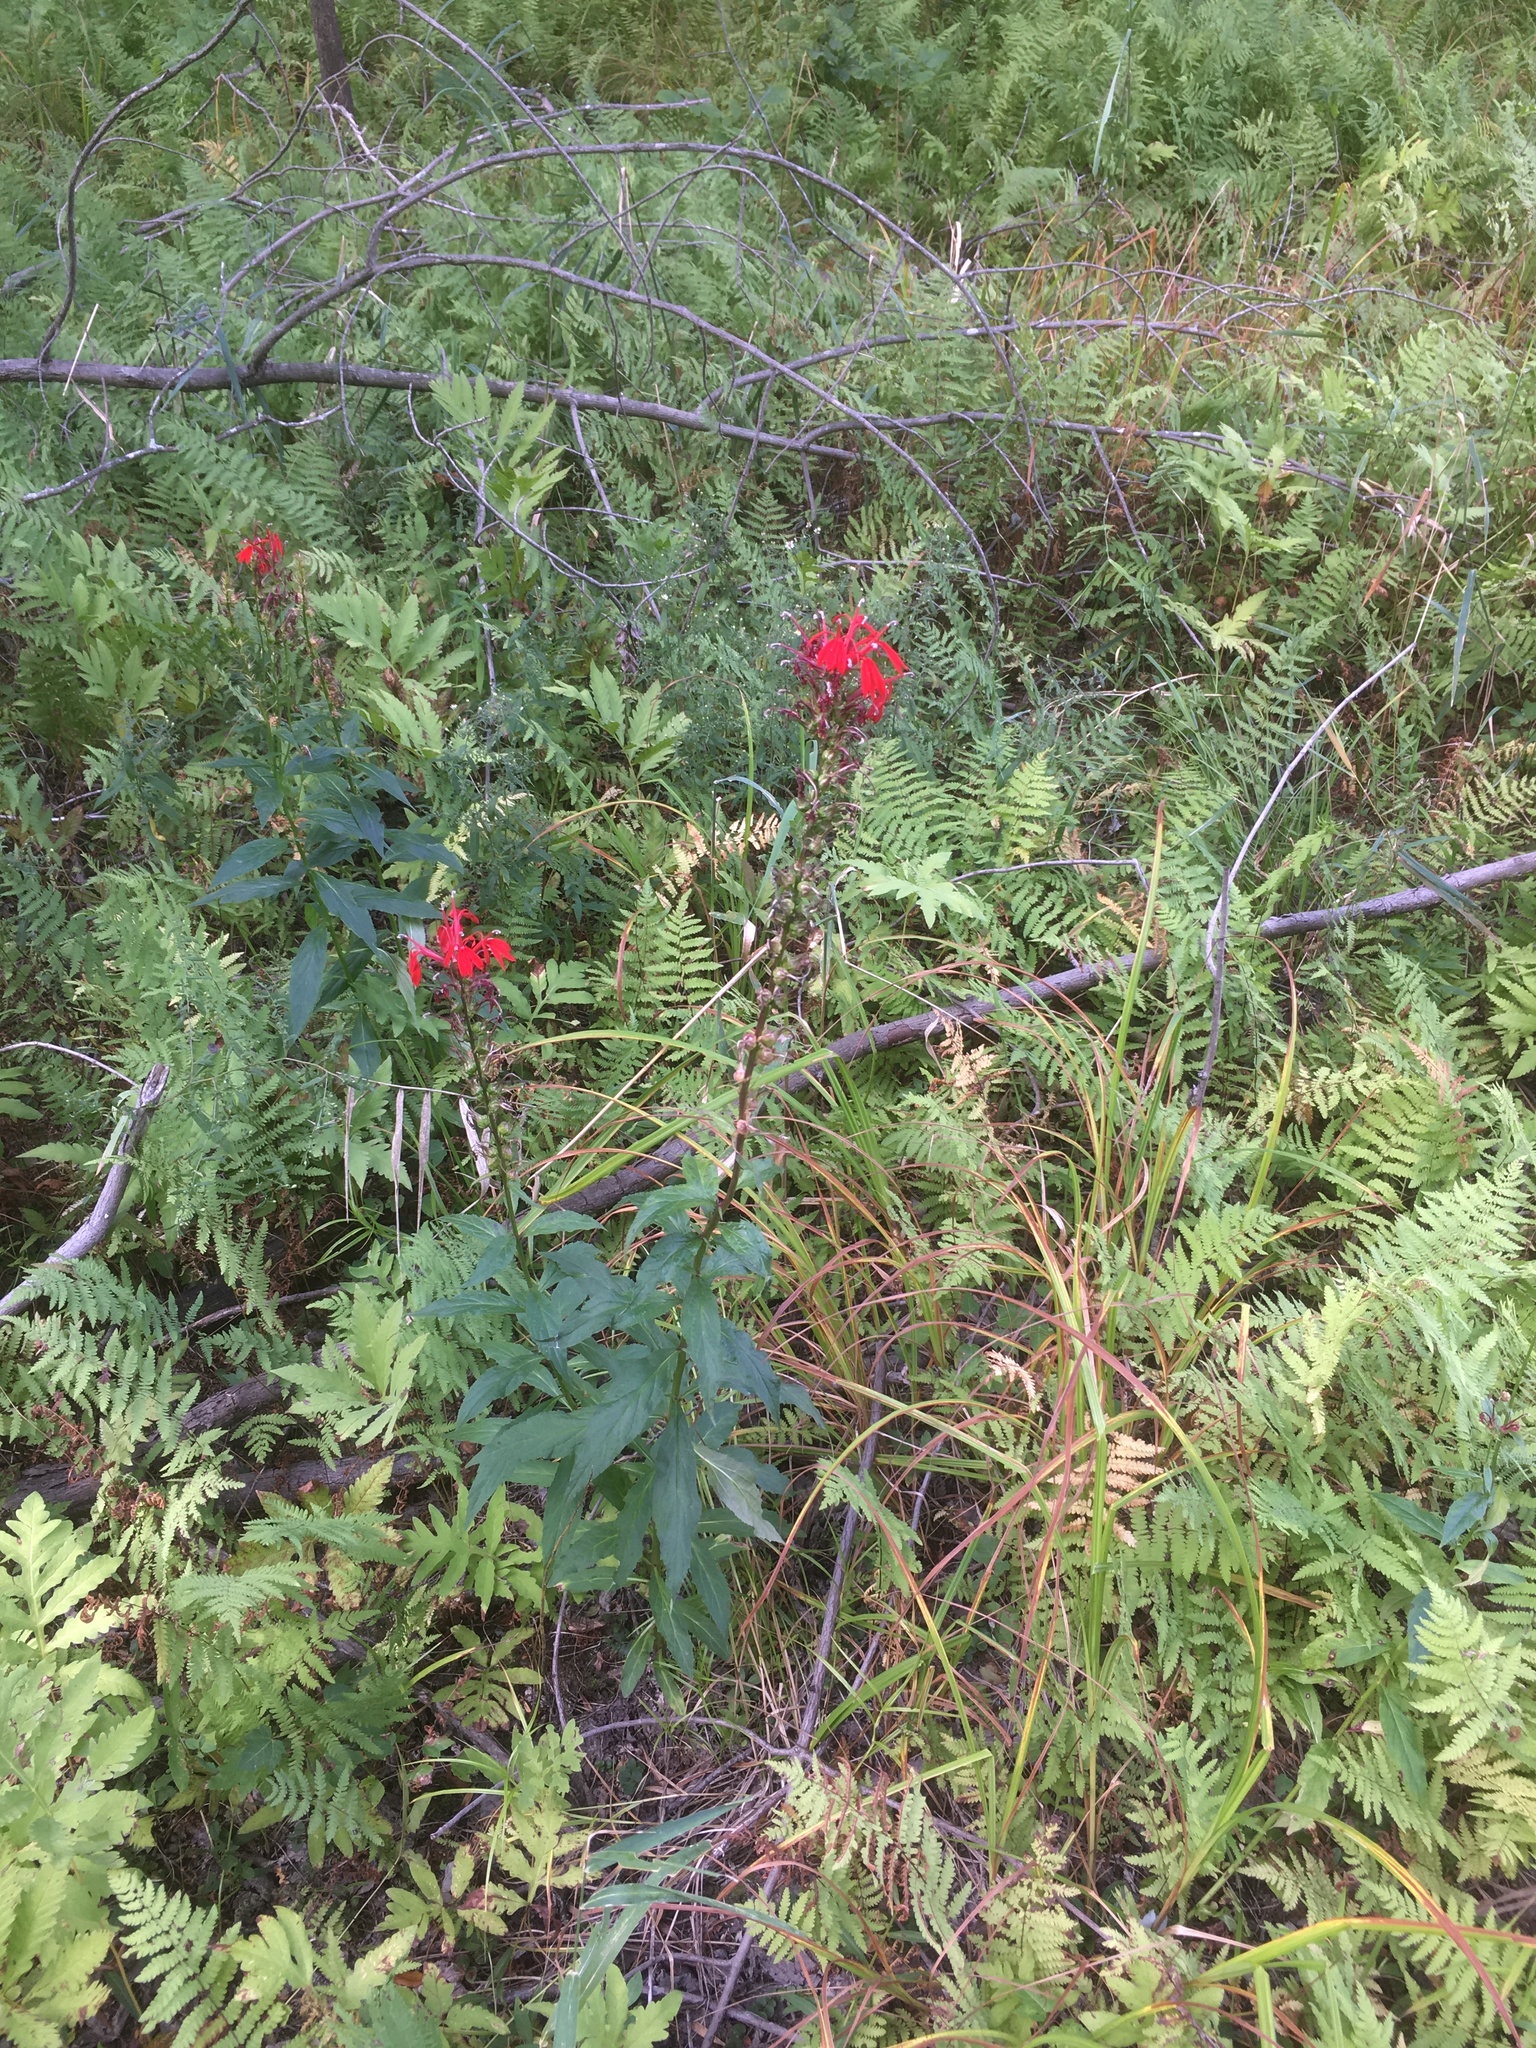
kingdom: Plantae
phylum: Tracheophyta
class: Magnoliopsida
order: Asterales
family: Campanulaceae
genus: Lobelia
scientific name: Lobelia cardinalis
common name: Cardinal flower
